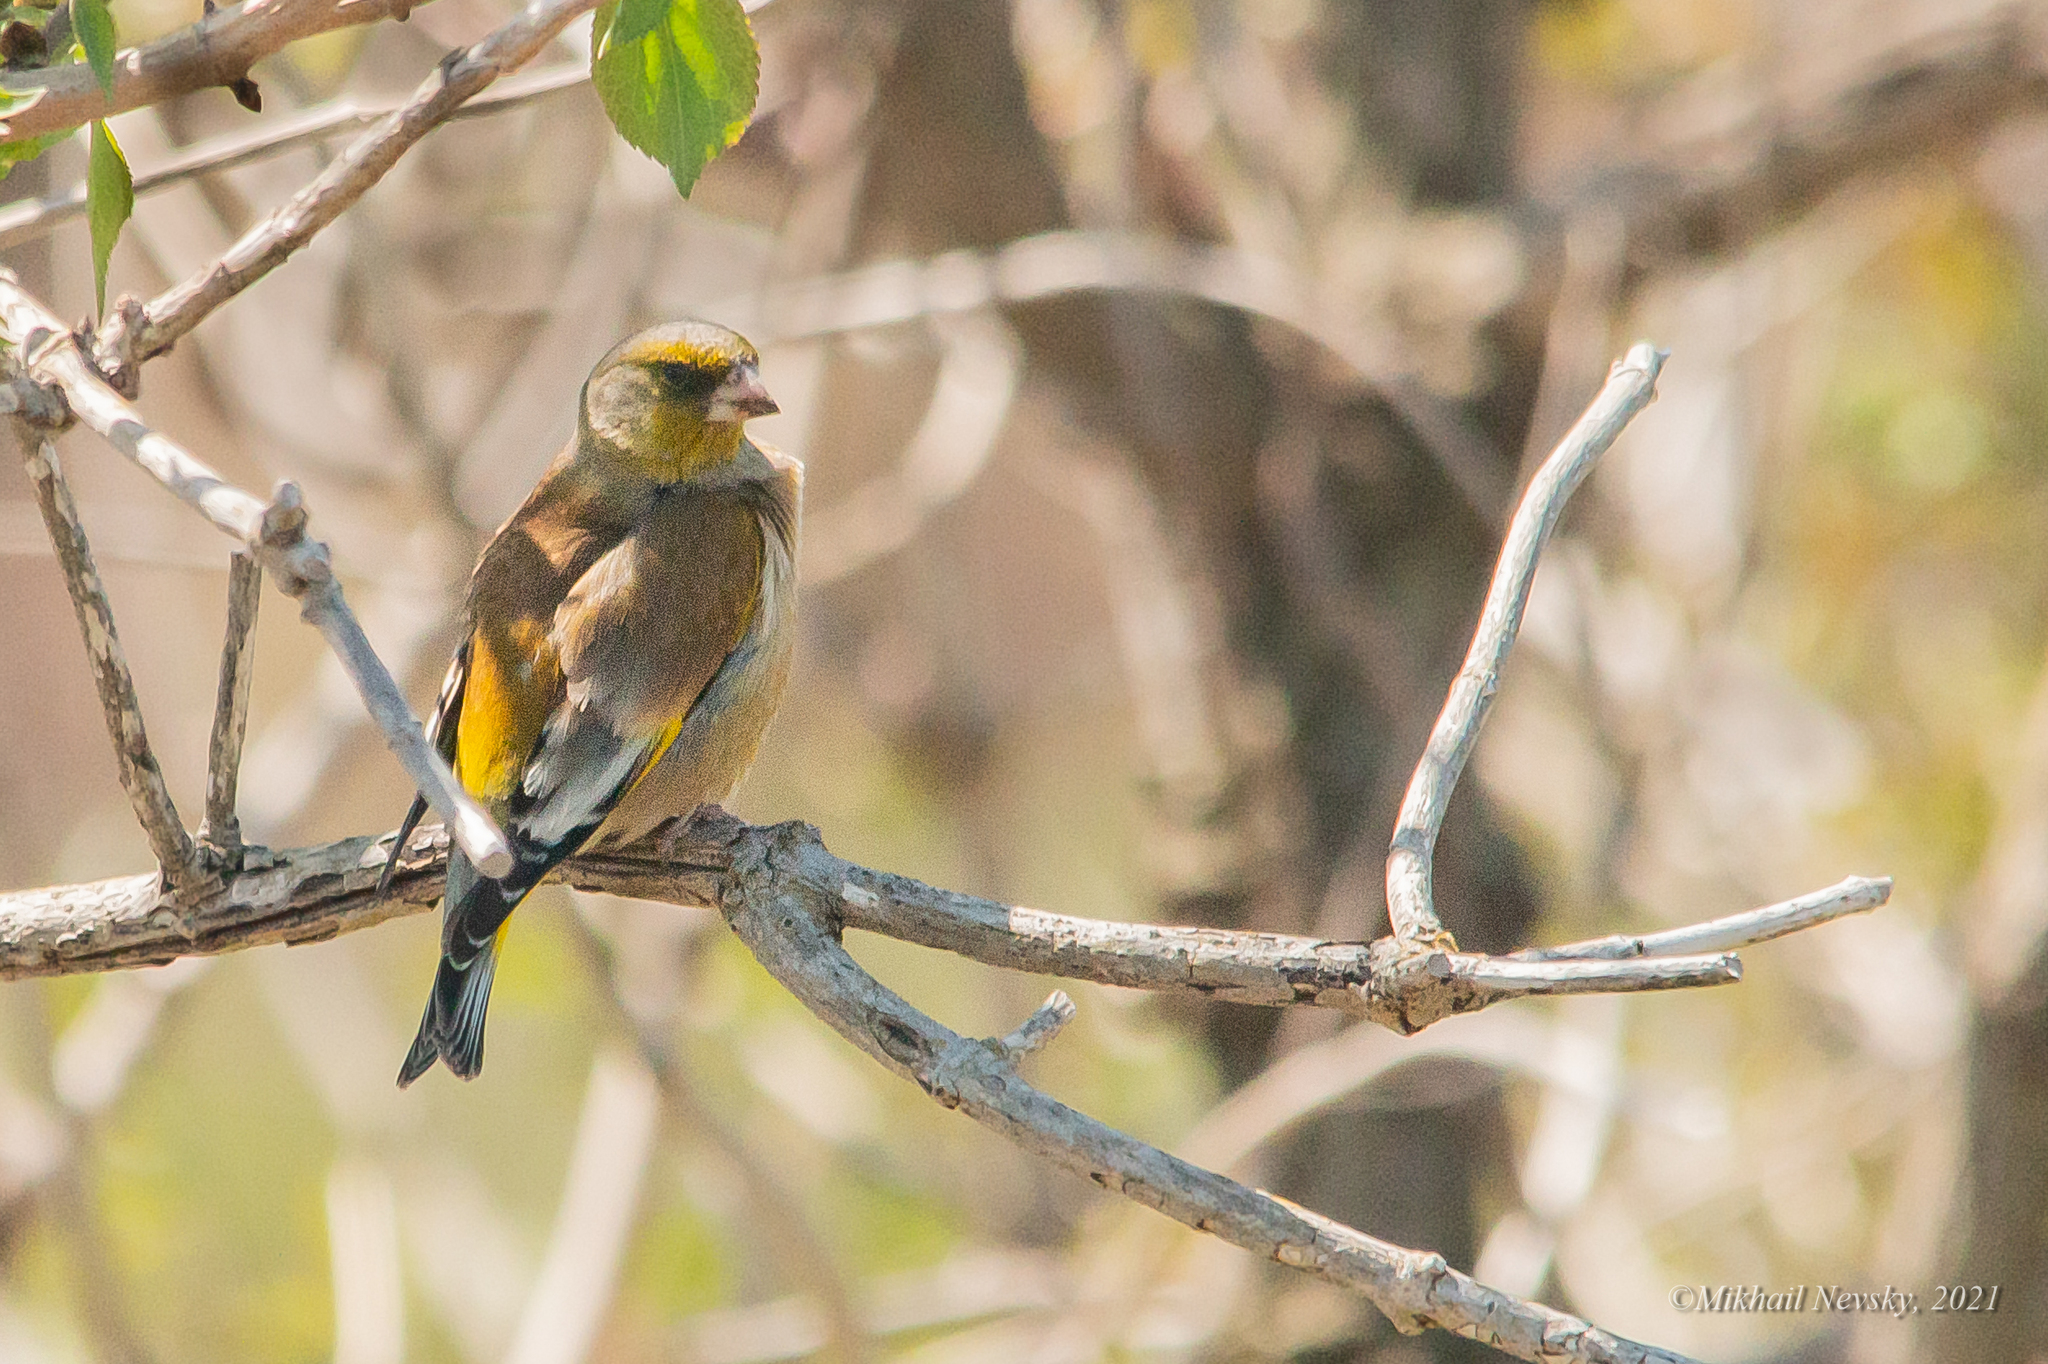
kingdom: Plantae
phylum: Tracheophyta
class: Liliopsida
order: Poales
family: Poaceae
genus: Chloris
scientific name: Chloris sinica
